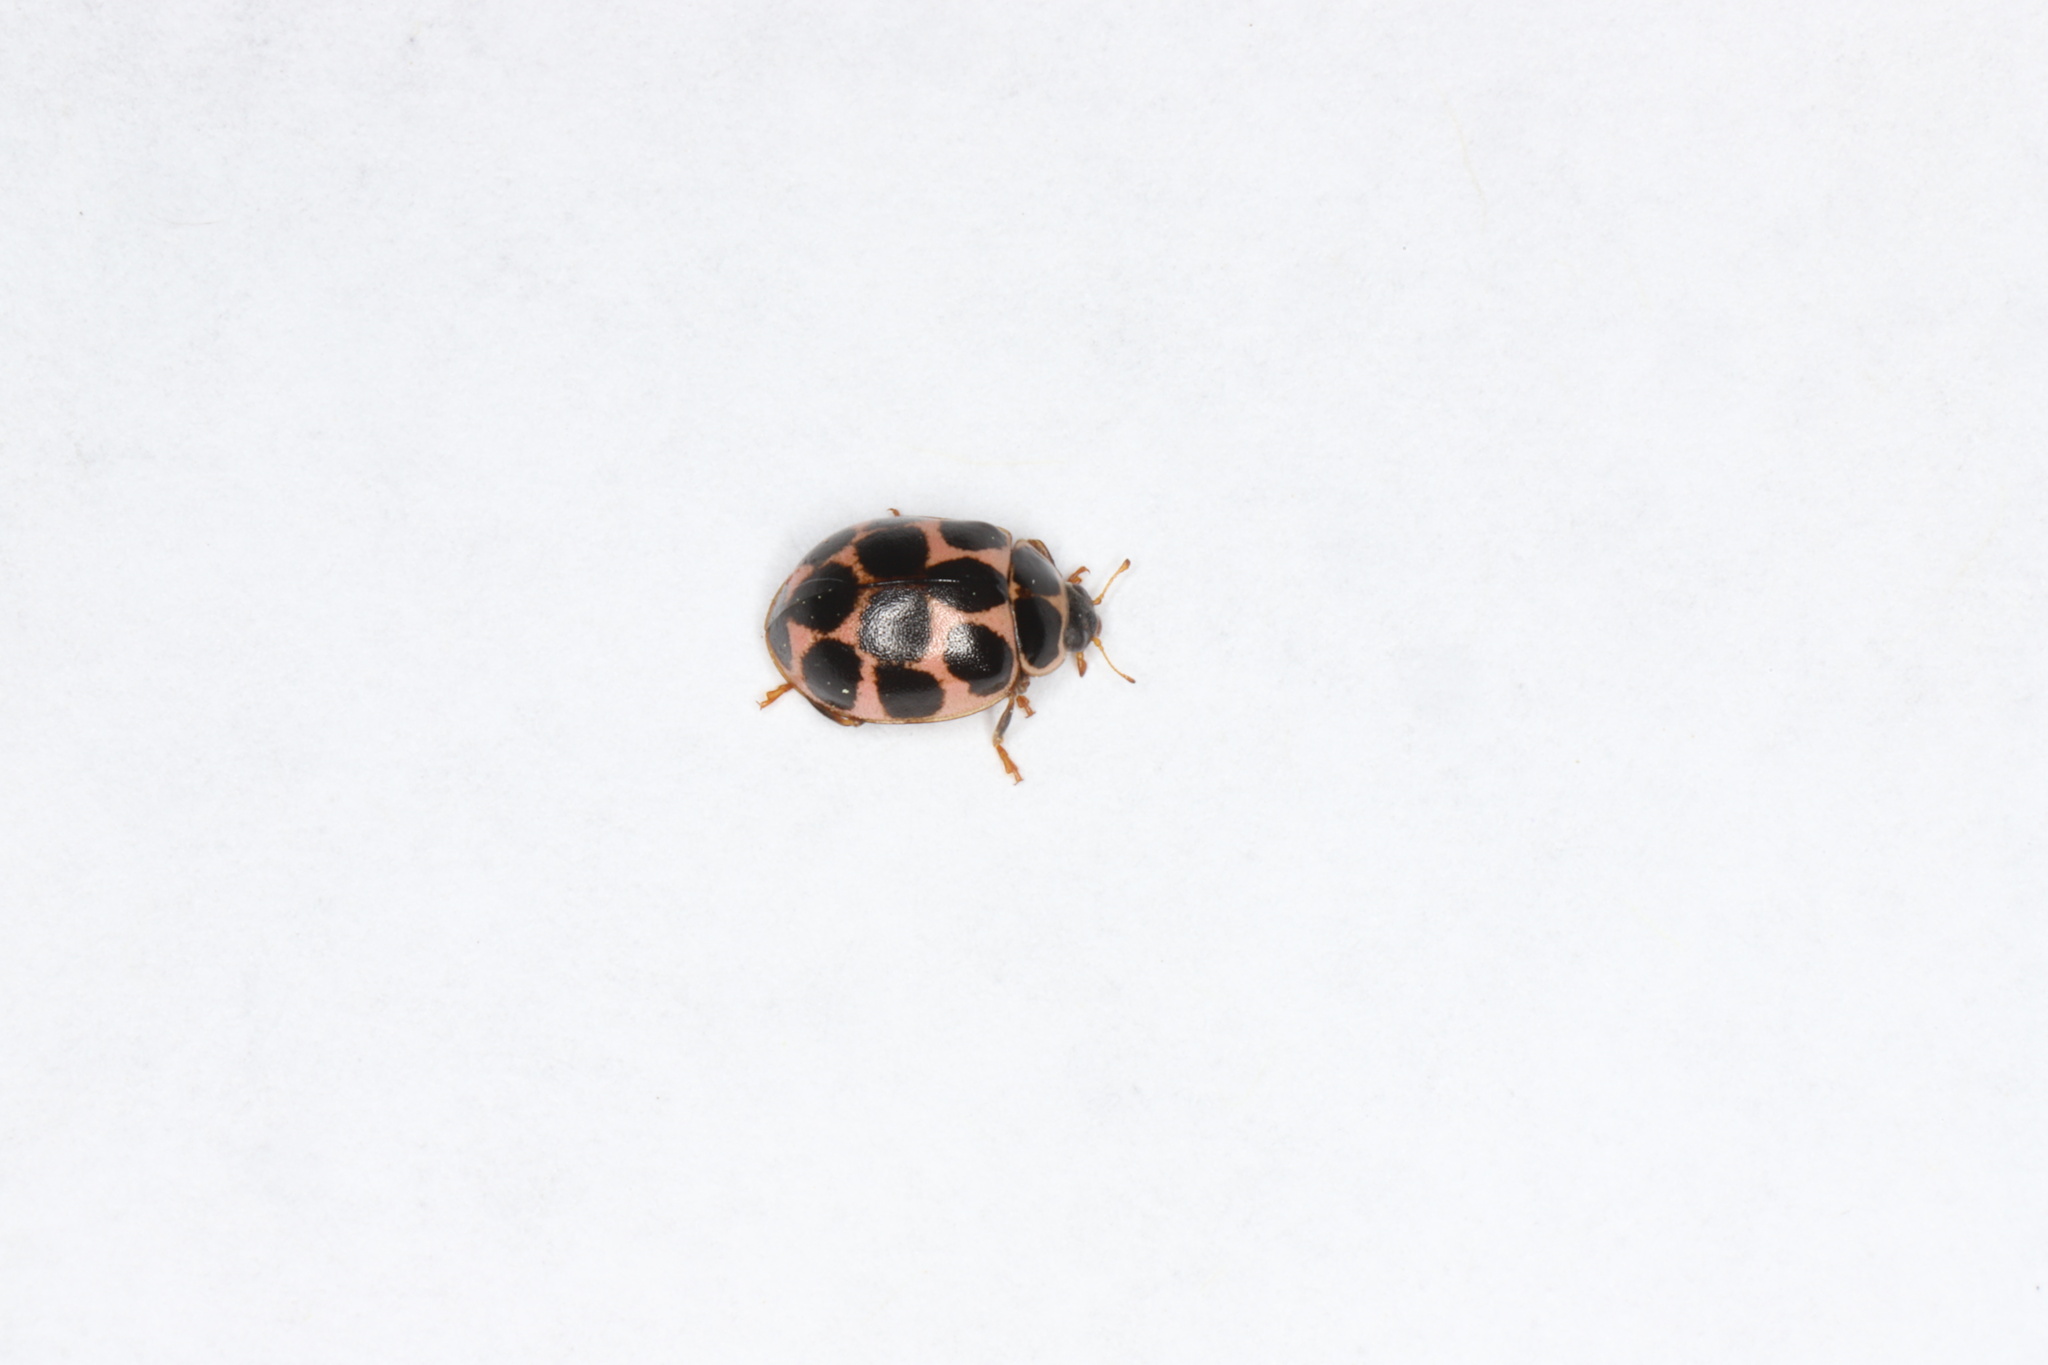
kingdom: Animalia
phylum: Arthropoda
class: Insecta
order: Coleoptera
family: Coccinellidae
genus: Calvia
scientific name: Calvia quatuordecimguttata
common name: Cream-spot ladybird
